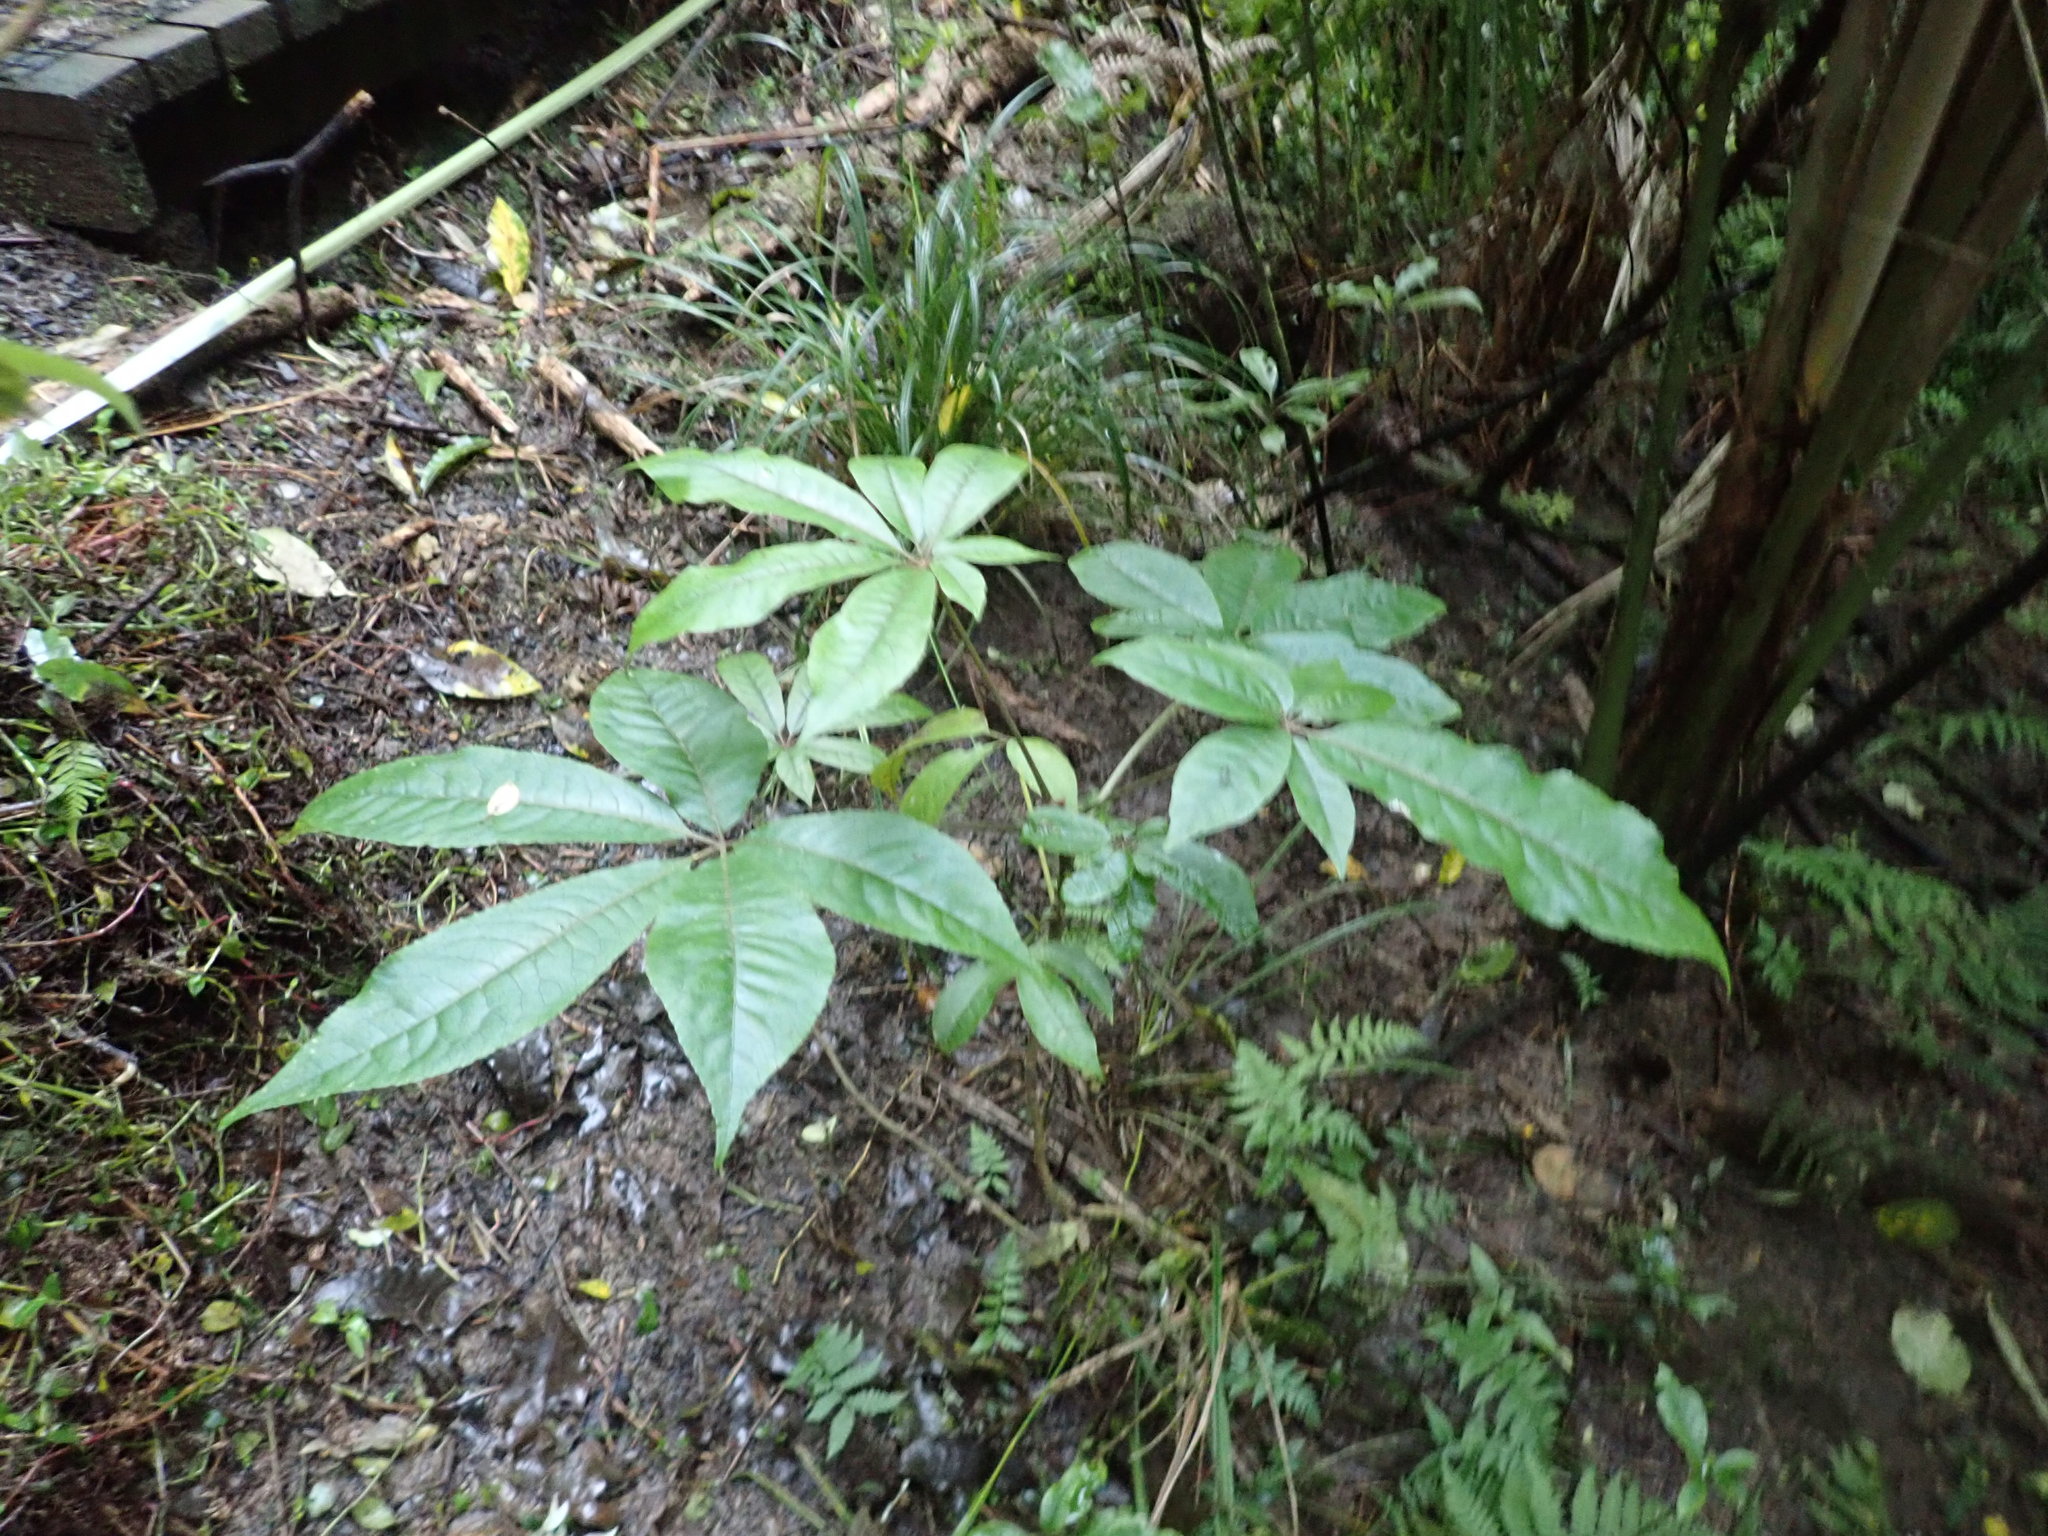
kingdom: Plantae
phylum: Tracheophyta
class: Magnoliopsida
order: Apiales
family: Araliaceae
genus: Schefflera
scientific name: Schefflera digitata
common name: Pate
